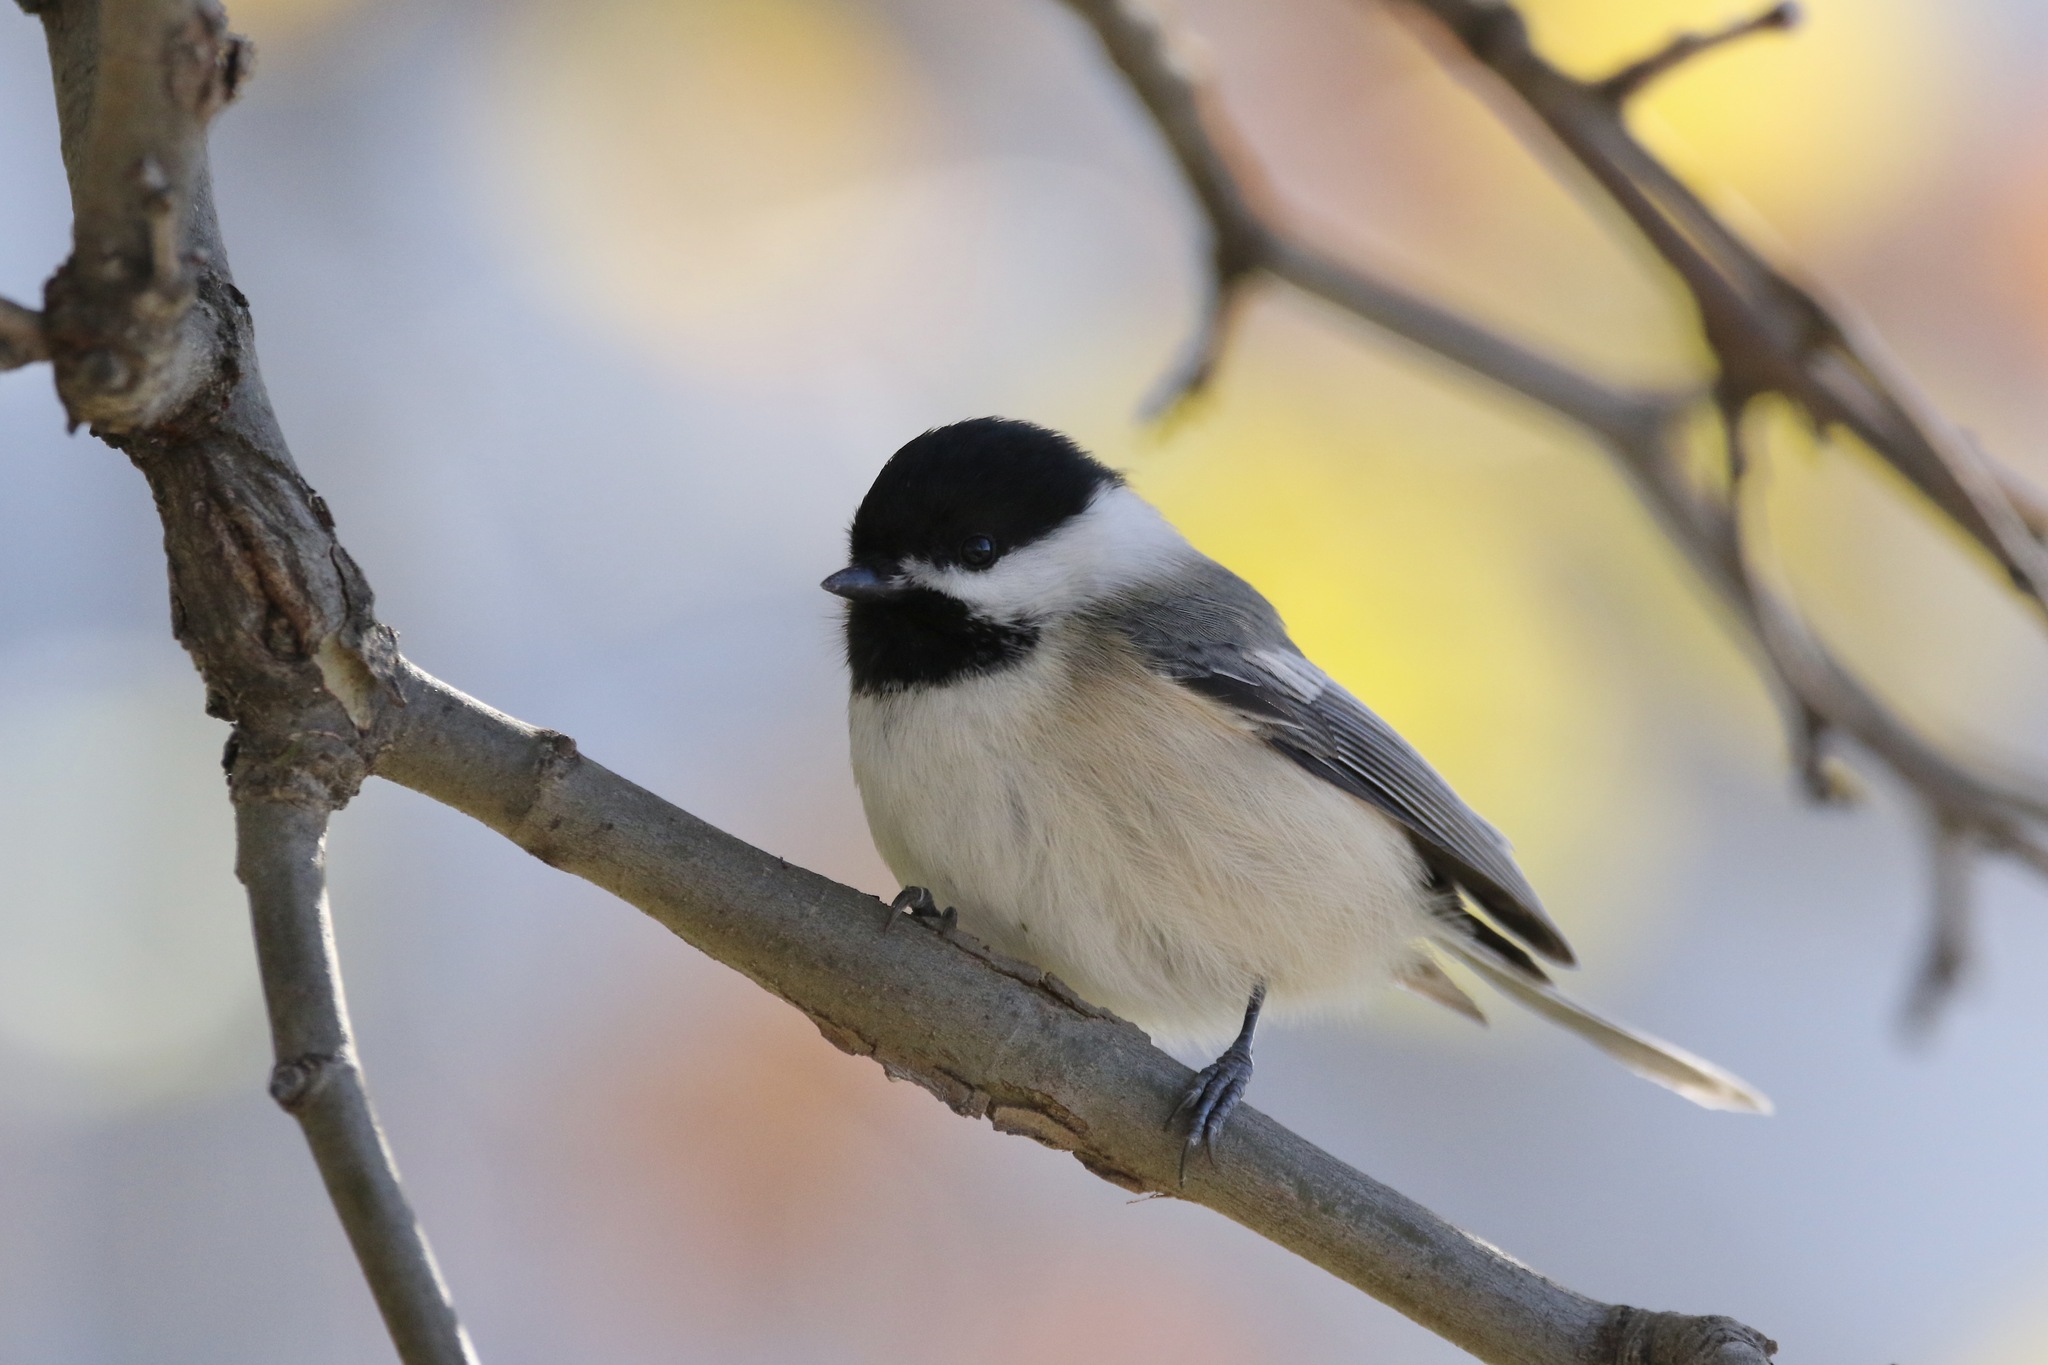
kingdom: Animalia
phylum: Chordata
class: Aves
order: Passeriformes
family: Paridae
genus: Poecile
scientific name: Poecile atricapillus
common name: Black-capped chickadee
